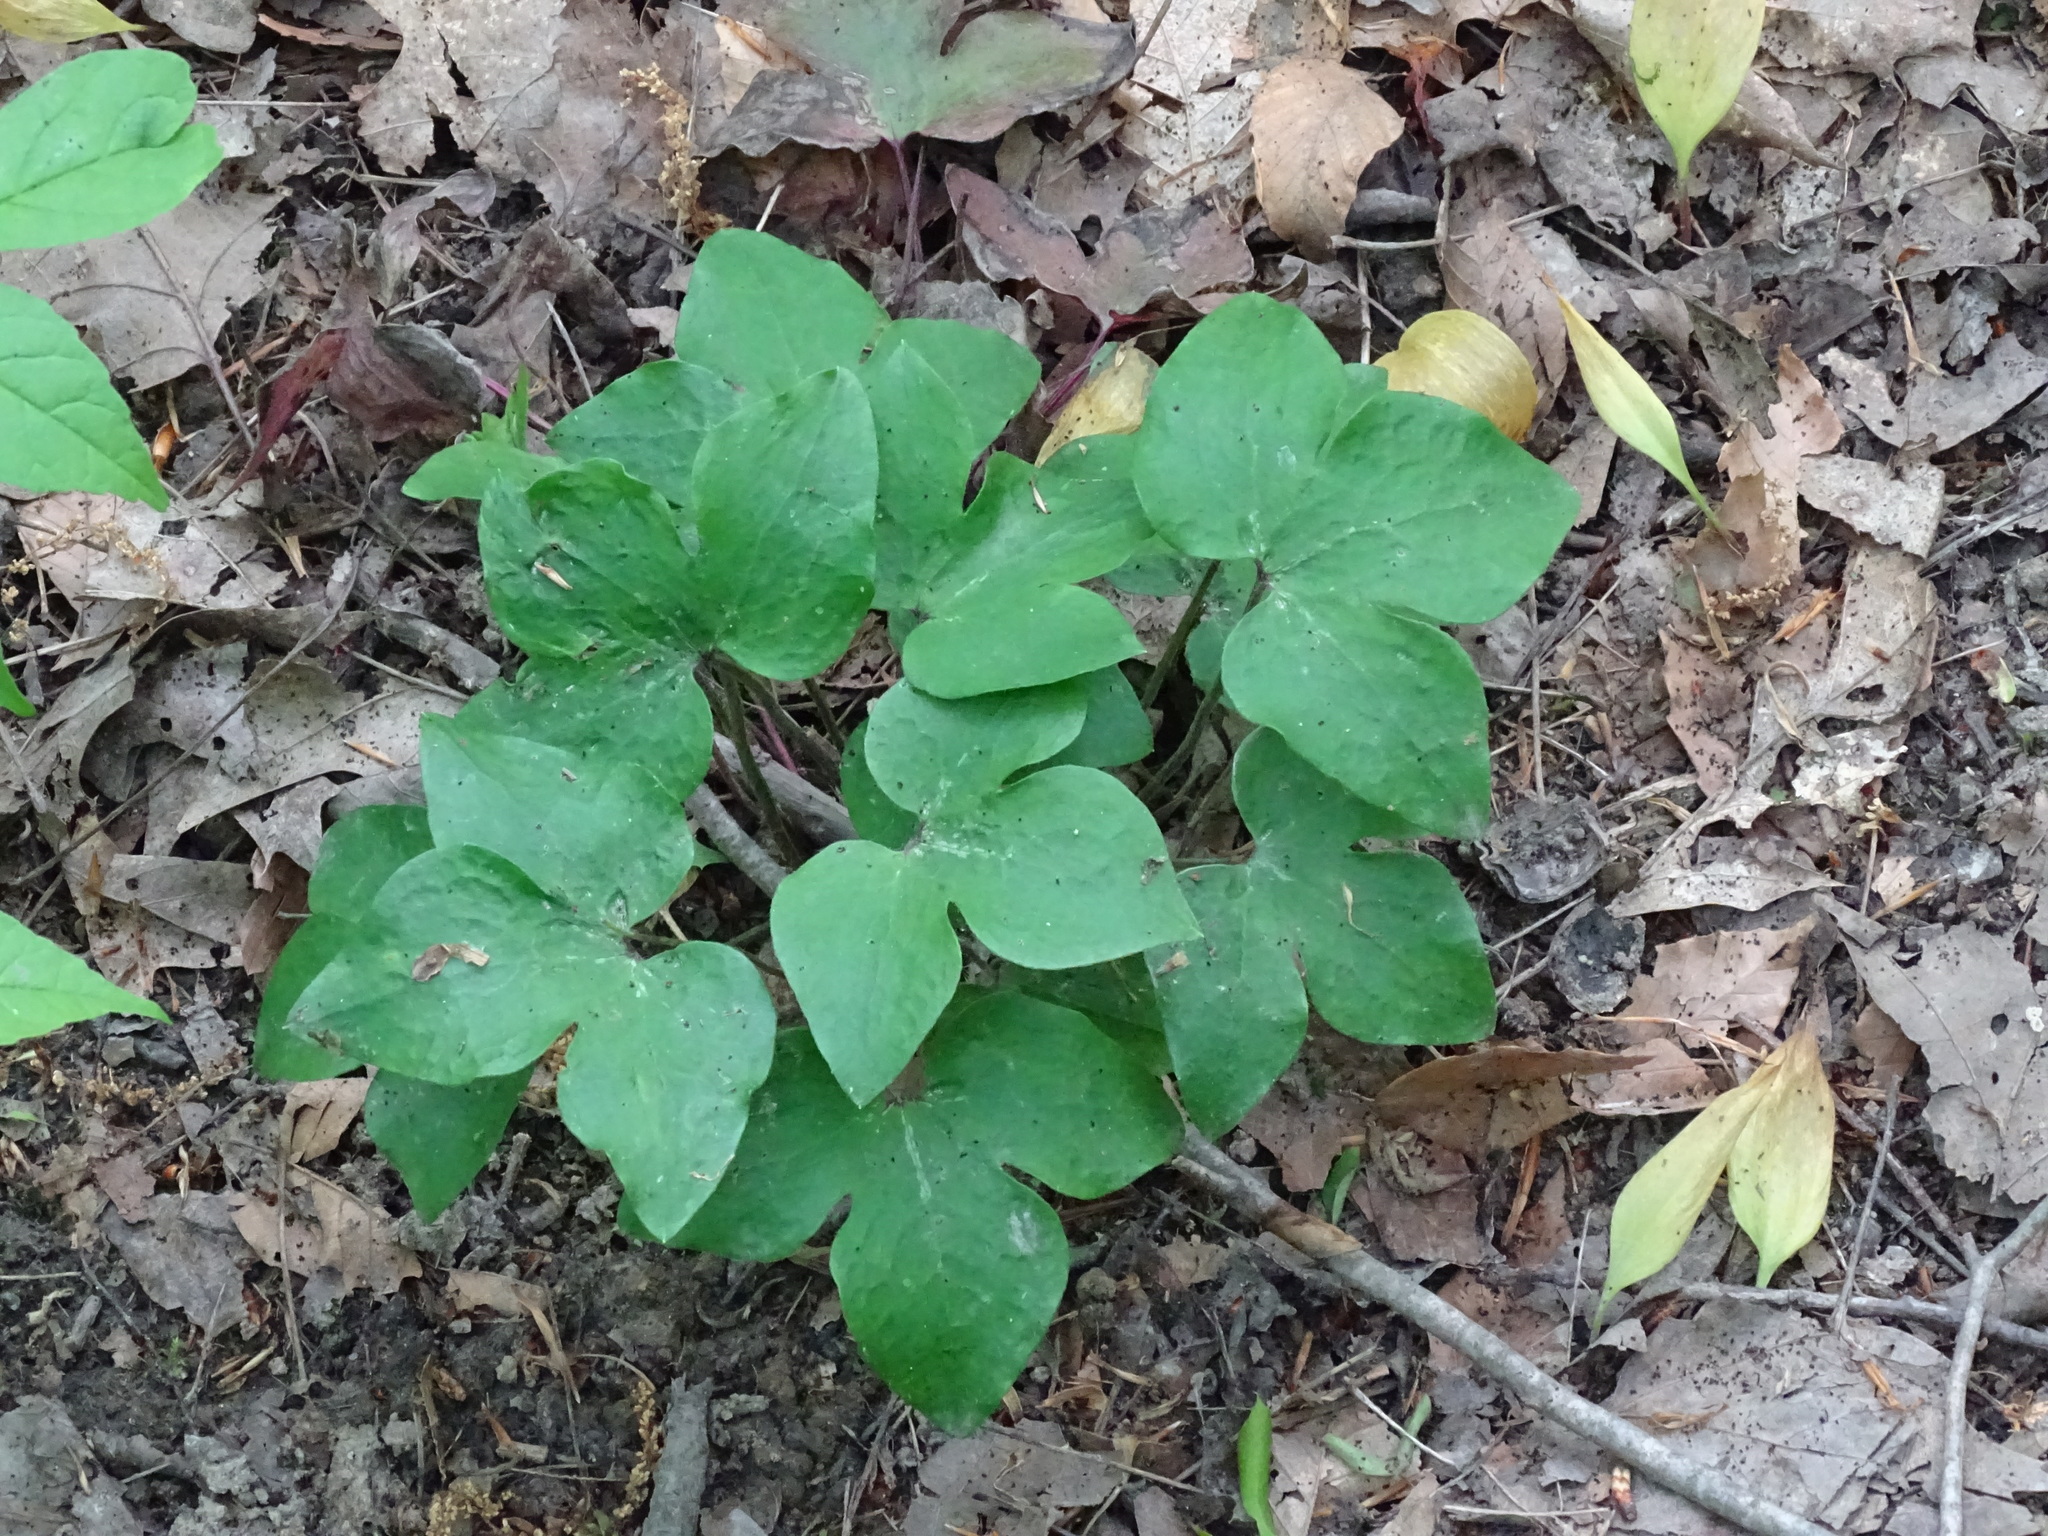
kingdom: Plantae
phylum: Tracheophyta
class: Magnoliopsida
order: Ranunculales
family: Ranunculaceae
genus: Hepatica
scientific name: Hepatica acutiloba
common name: Sharp-lobed hepatica
